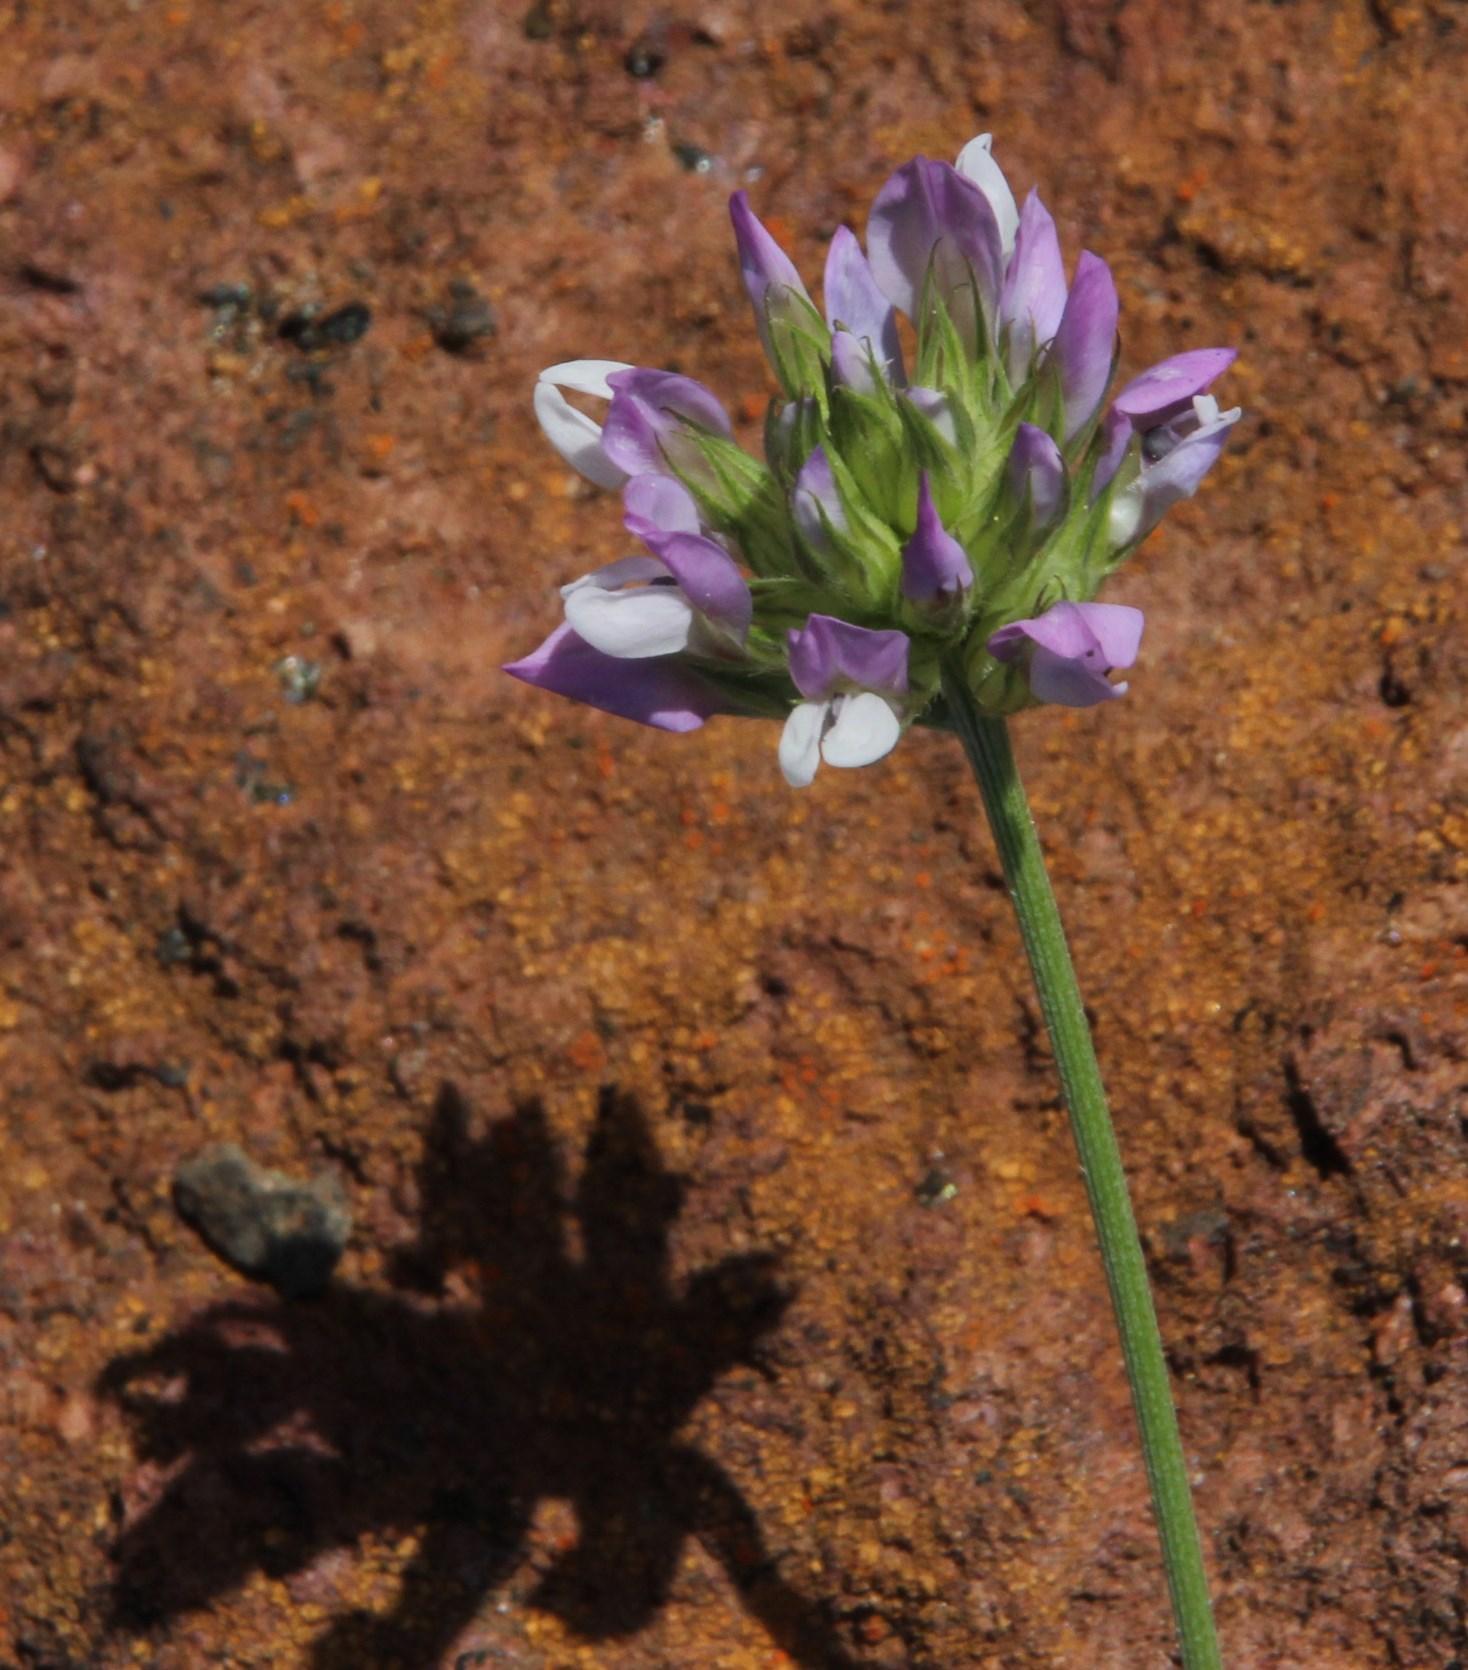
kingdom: Plantae
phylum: Tracheophyta
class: Magnoliopsida
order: Fabales
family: Fabaceae
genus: Bituminaria
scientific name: Bituminaria bituminosa
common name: Arabian pea
